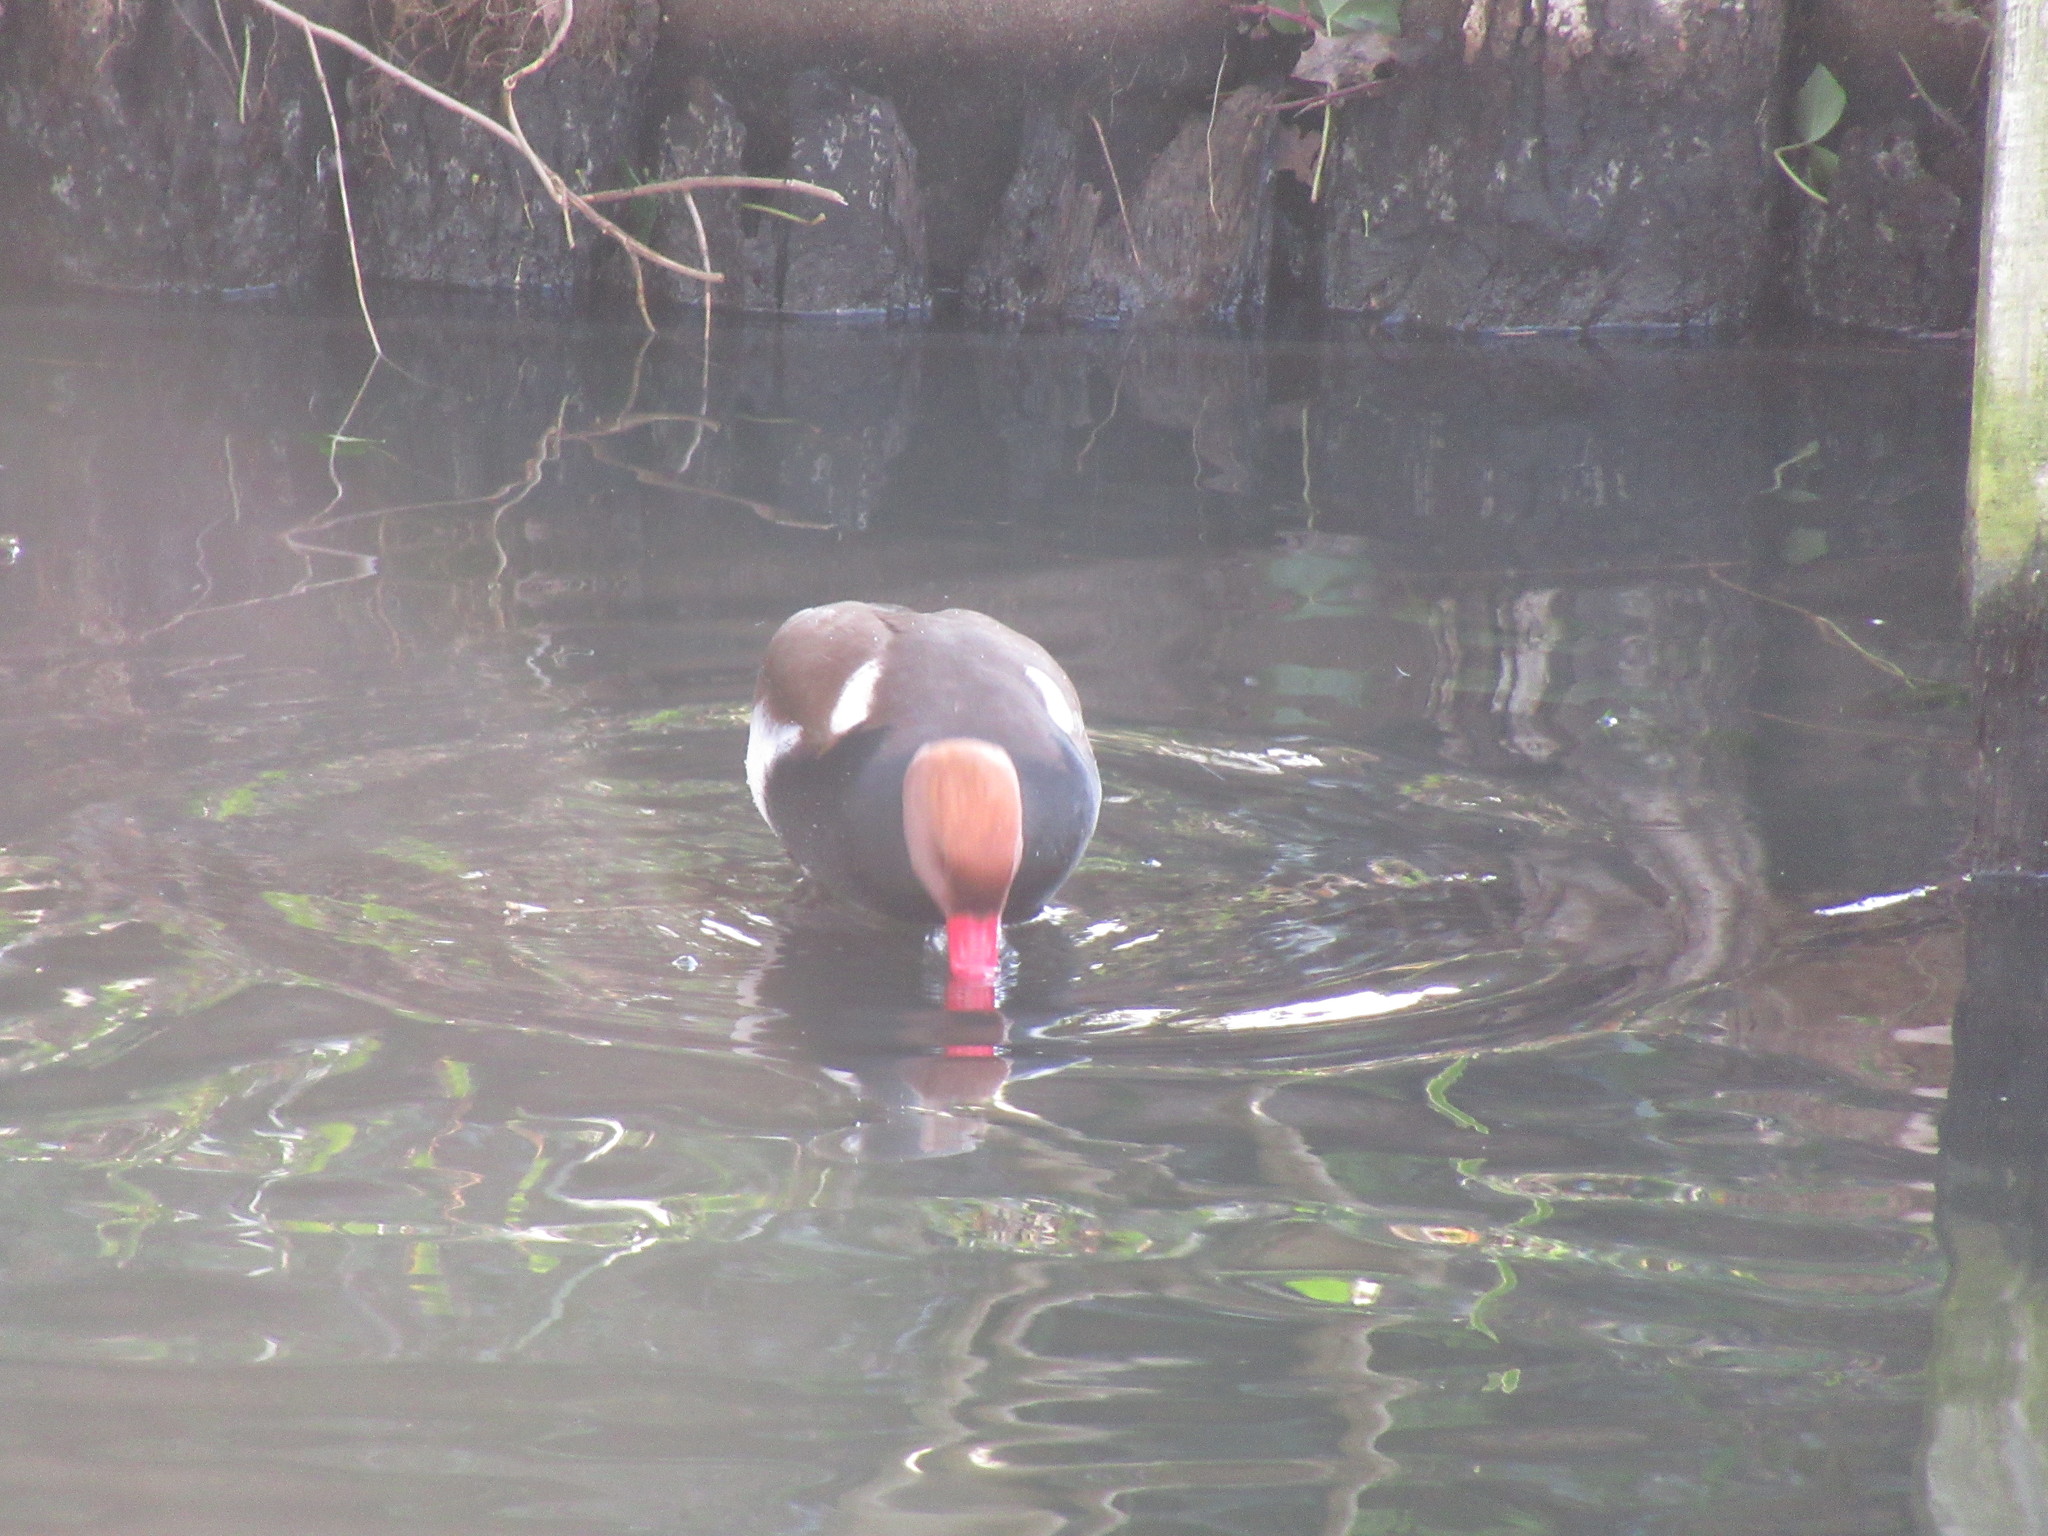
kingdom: Animalia
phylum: Chordata
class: Aves
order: Anseriformes
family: Anatidae
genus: Netta
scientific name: Netta rufina
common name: Red-crested pochard
